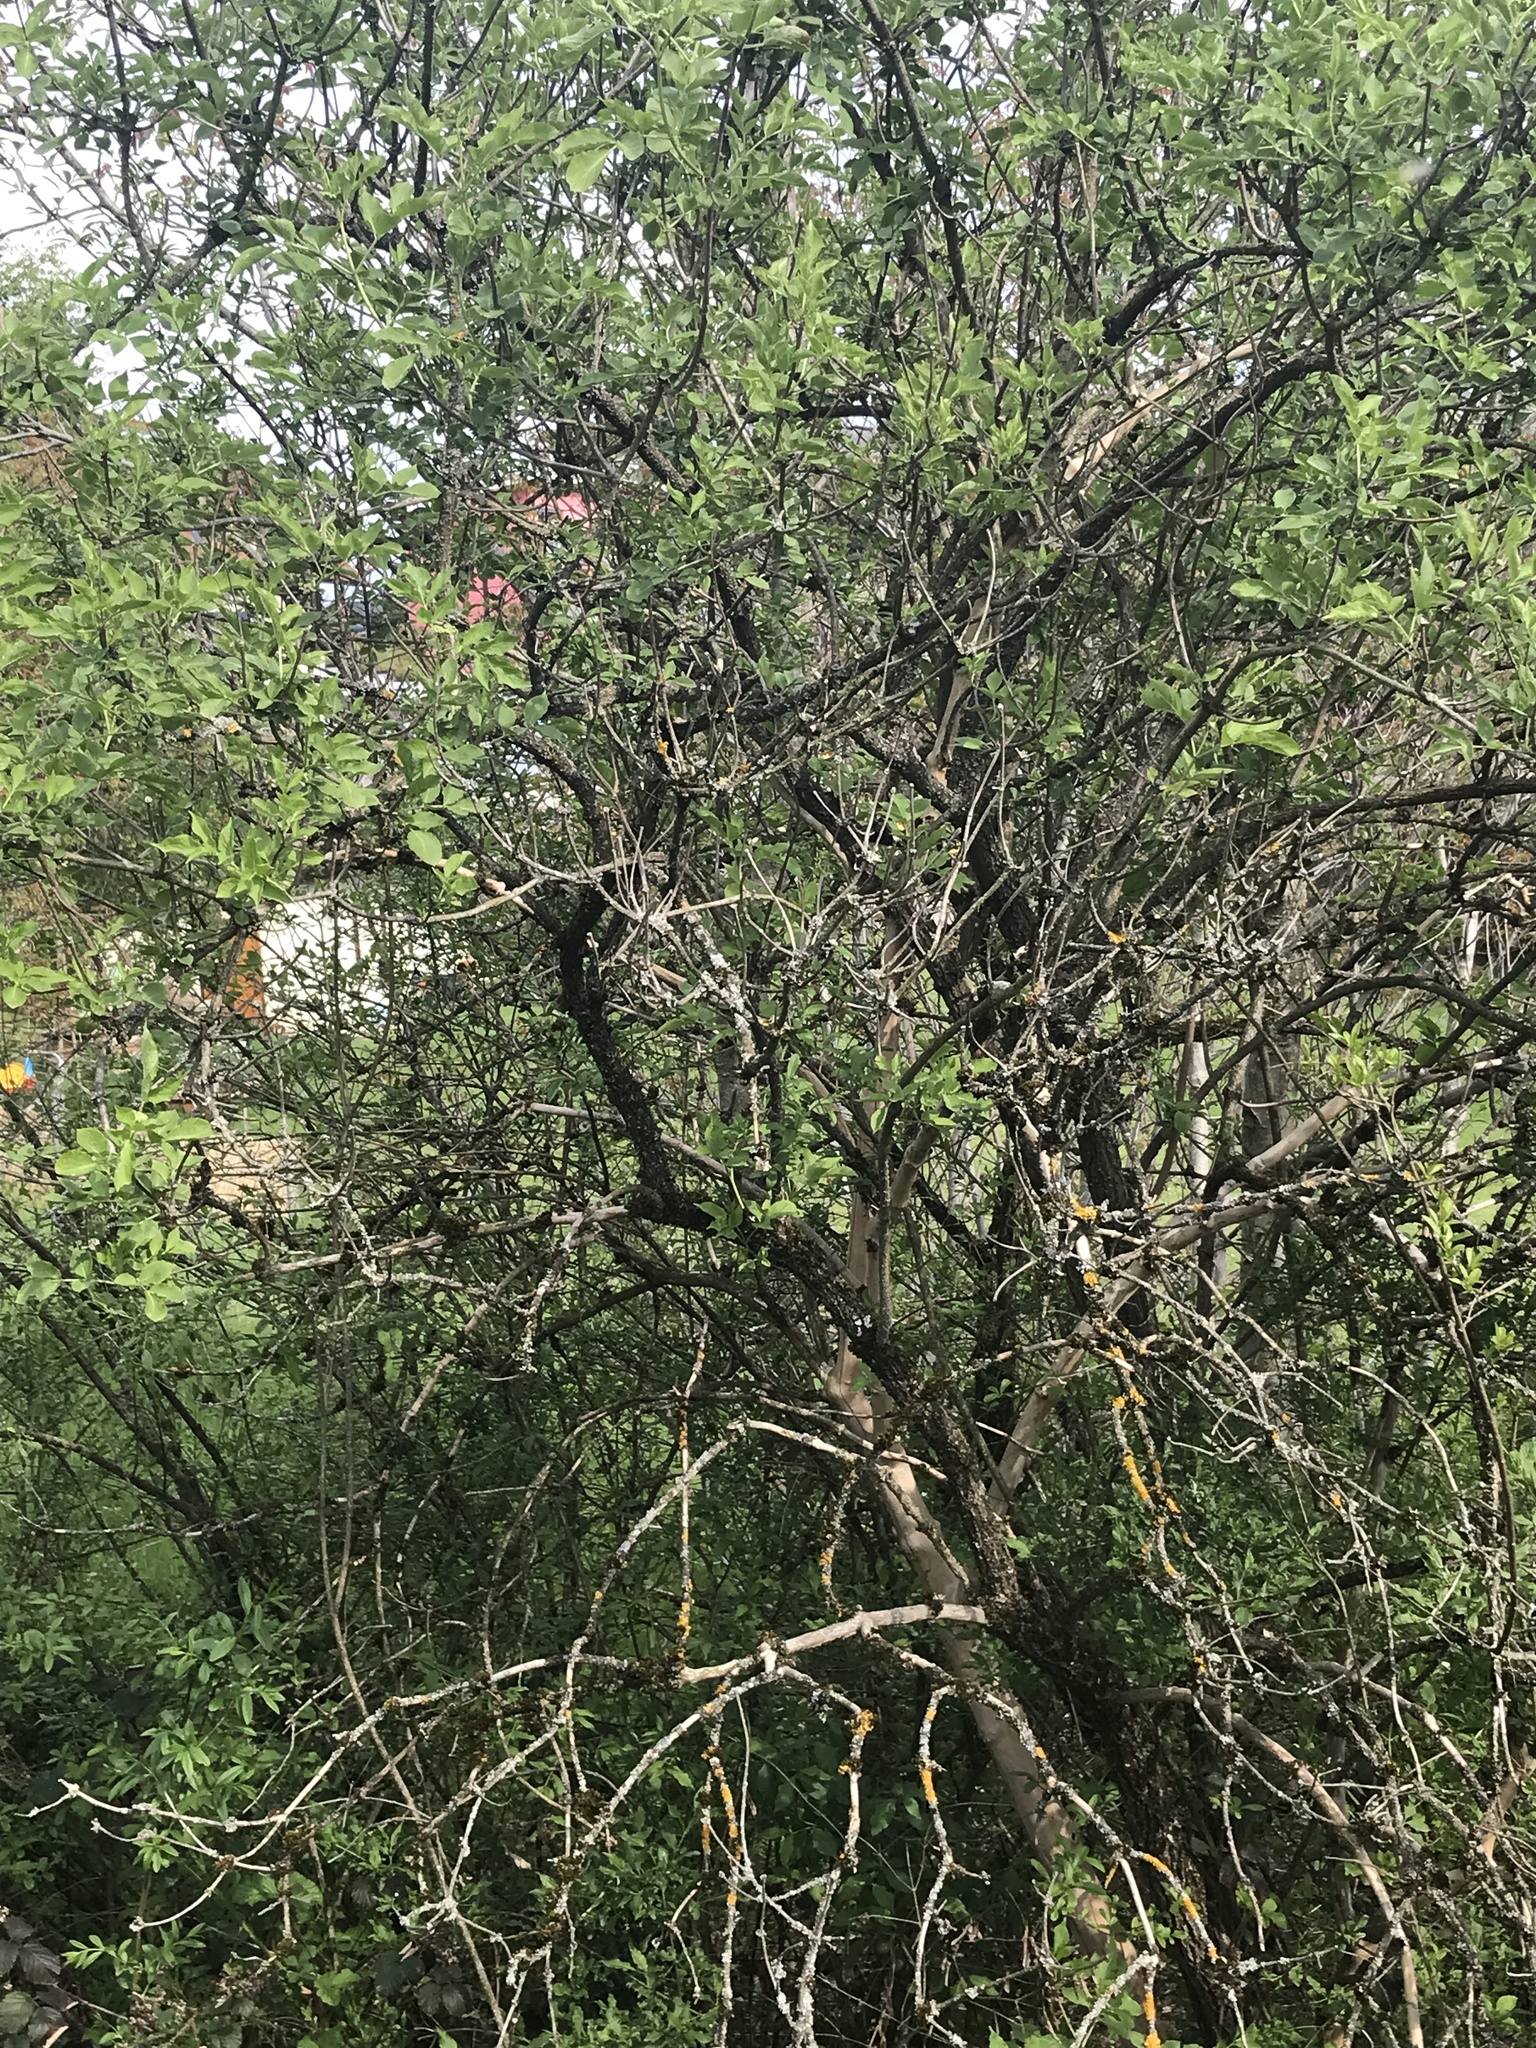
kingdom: Plantae
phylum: Tracheophyta
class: Magnoliopsida
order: Dipsacales
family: Viburnaceae
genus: Sambucus
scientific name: Sambucus nigra
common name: Elder
